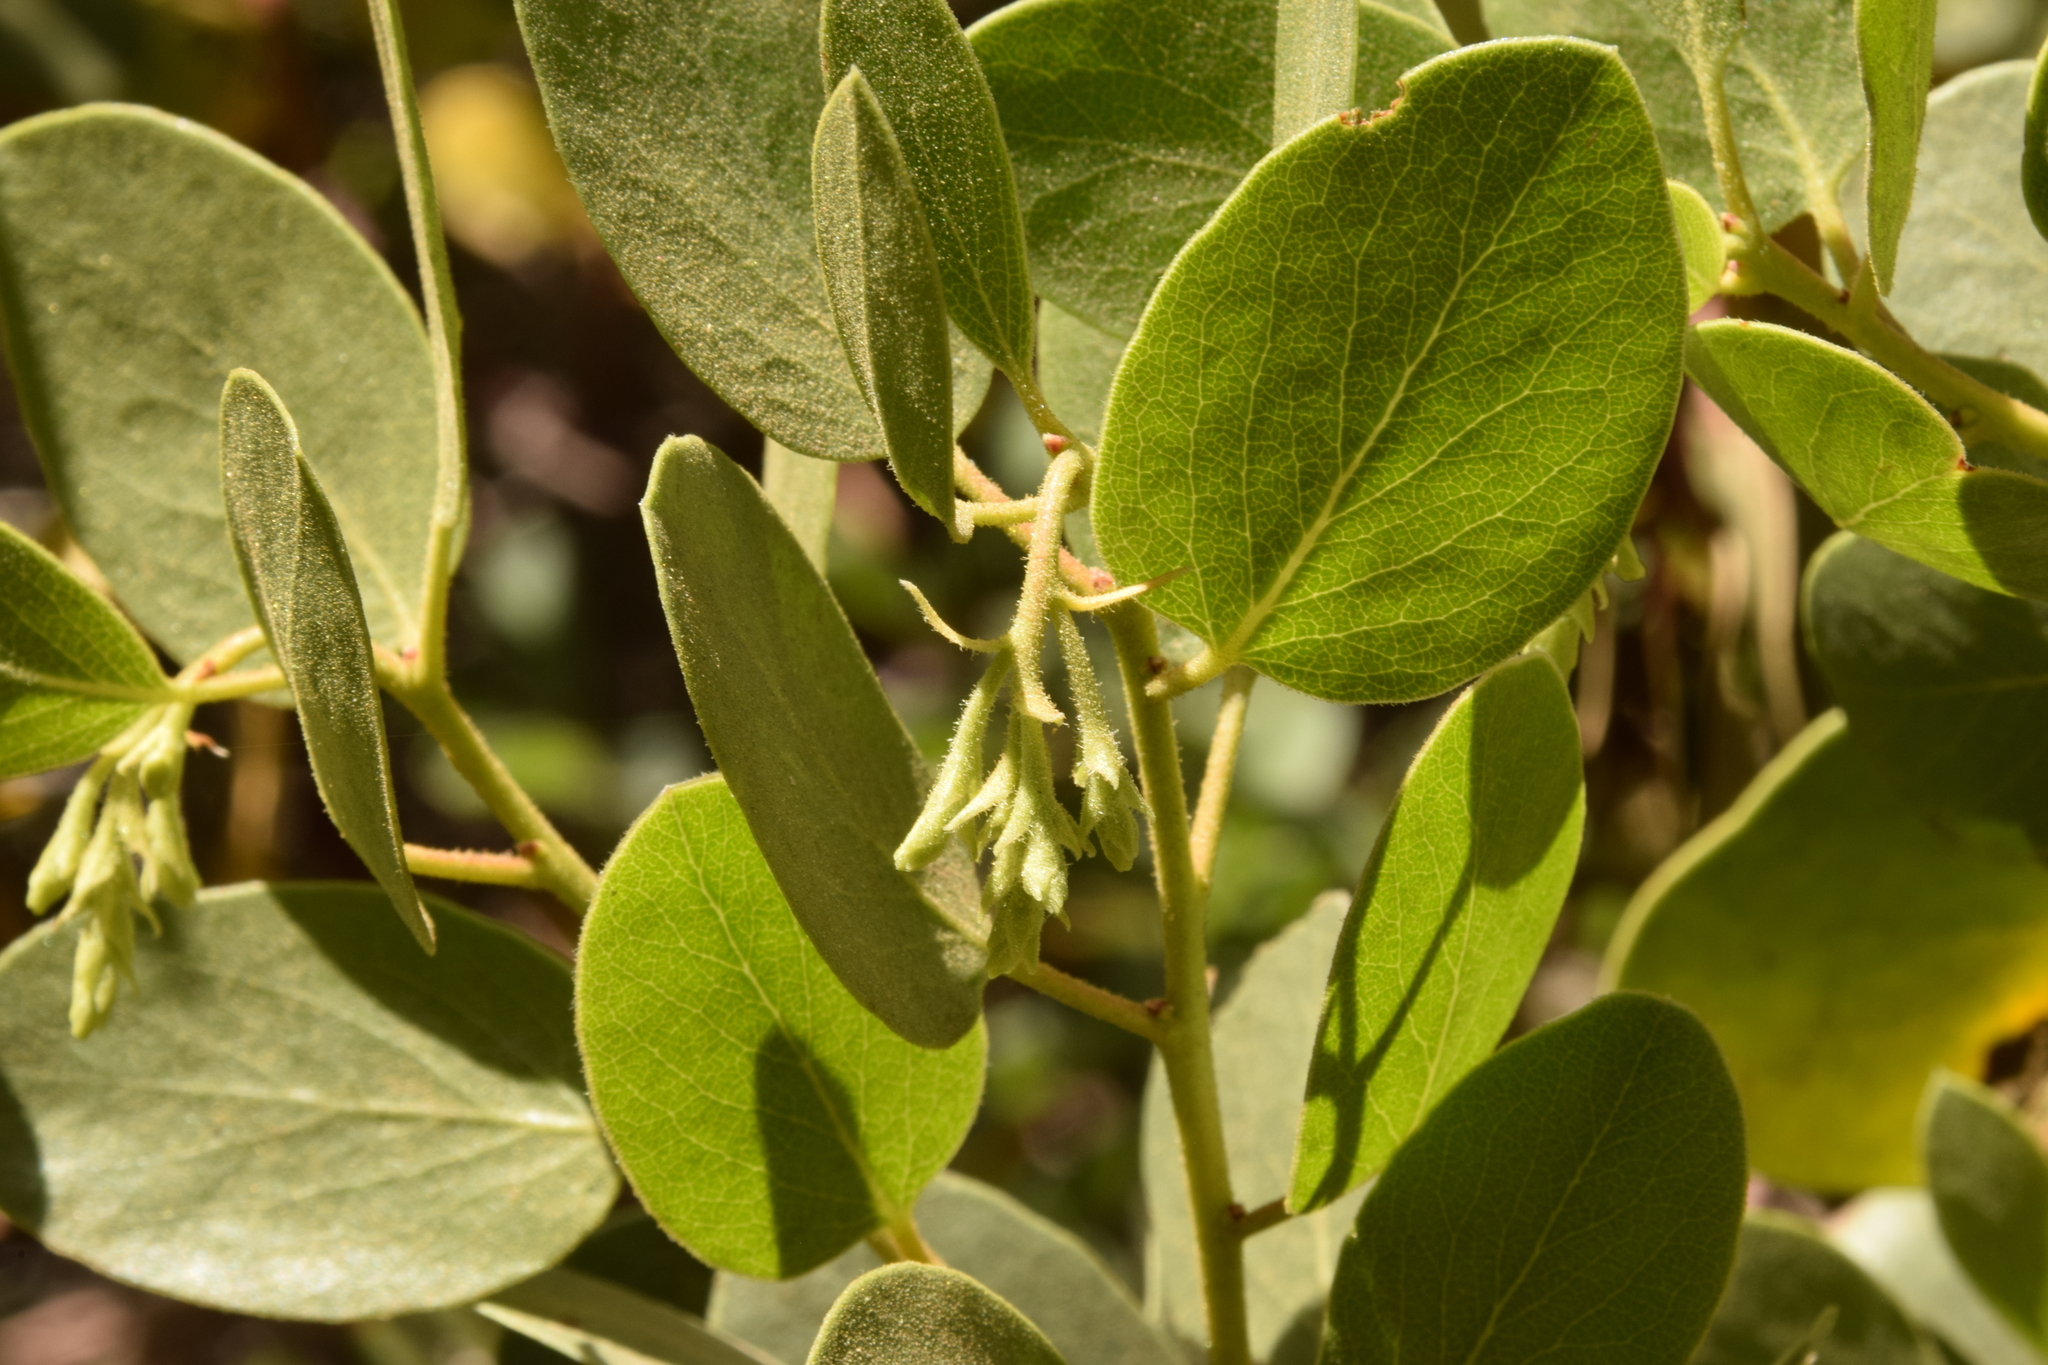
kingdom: Plantae
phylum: Tracheophyta
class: Magnoliopsida
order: Ericales
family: Ericaceae
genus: Arctostaphylos
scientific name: Arctostaphylos patula
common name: Green-leaf manzanita
